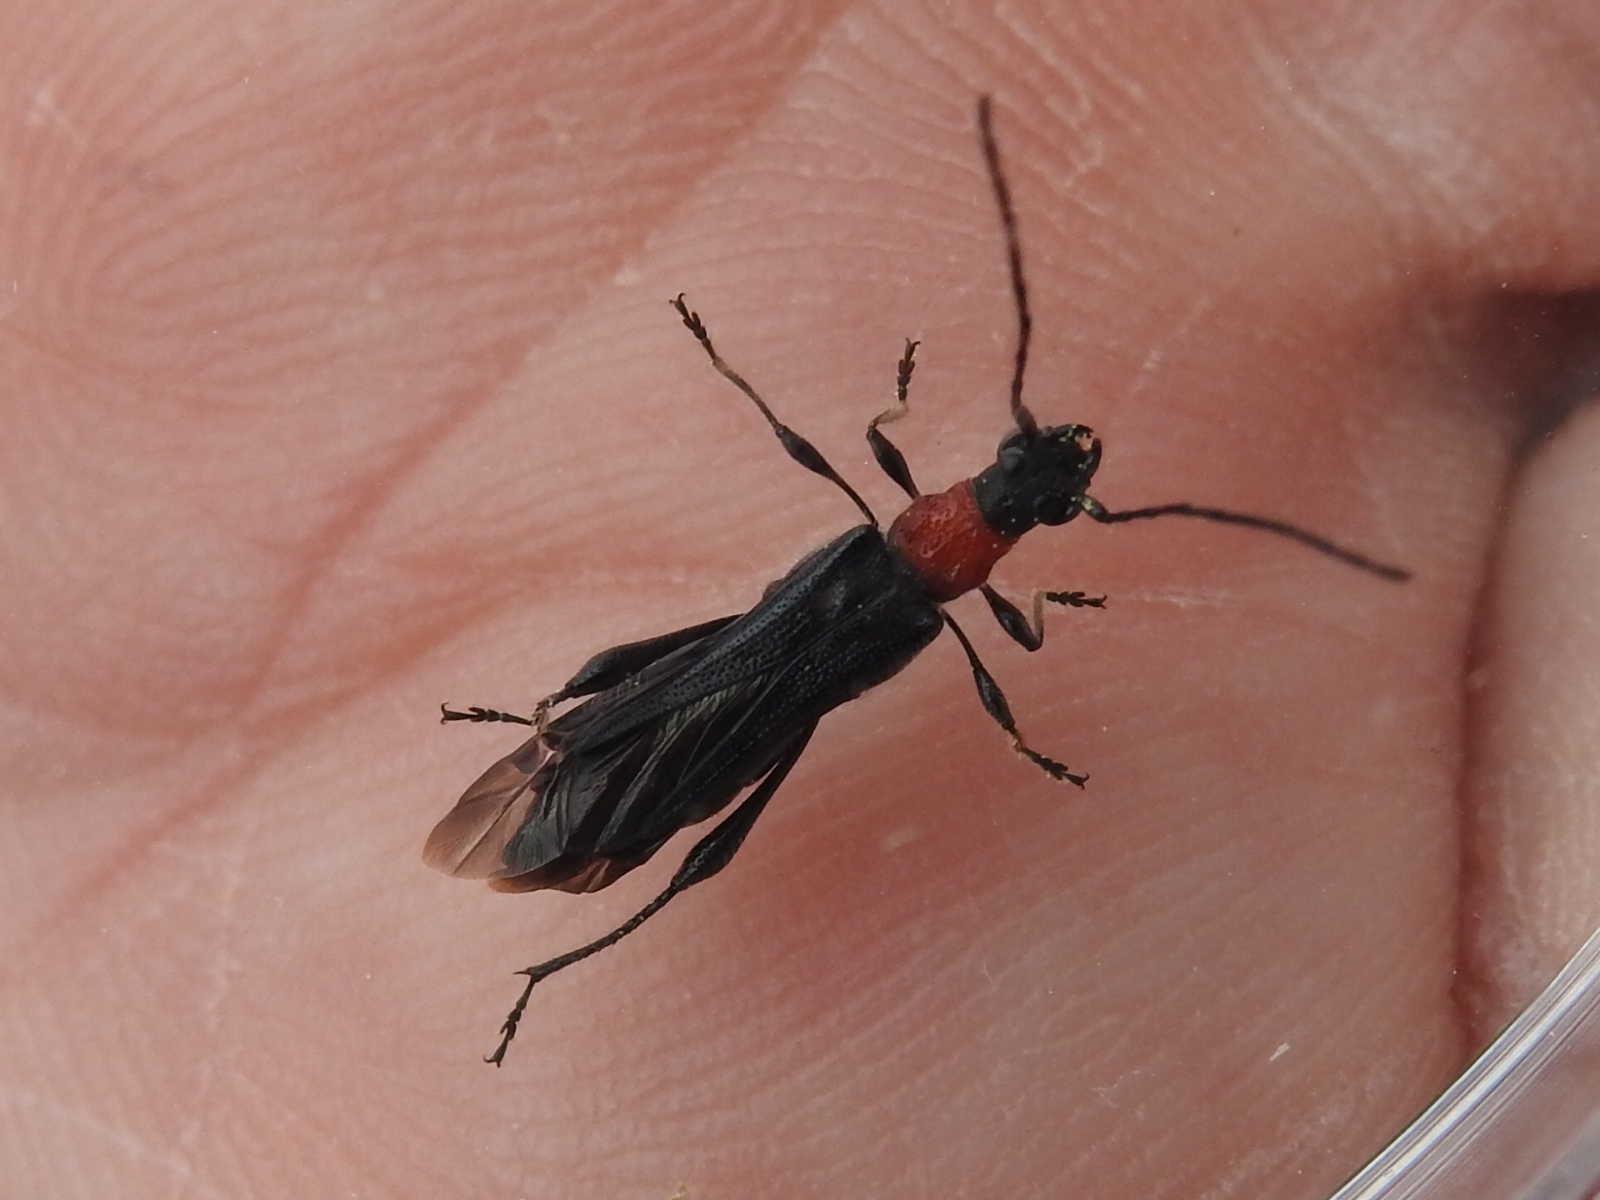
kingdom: Animalia
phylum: Arthropoda
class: Insecta
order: Coleoptera
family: Cerambycidae
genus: Callimoxys
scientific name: Callimoxys nigrinus
